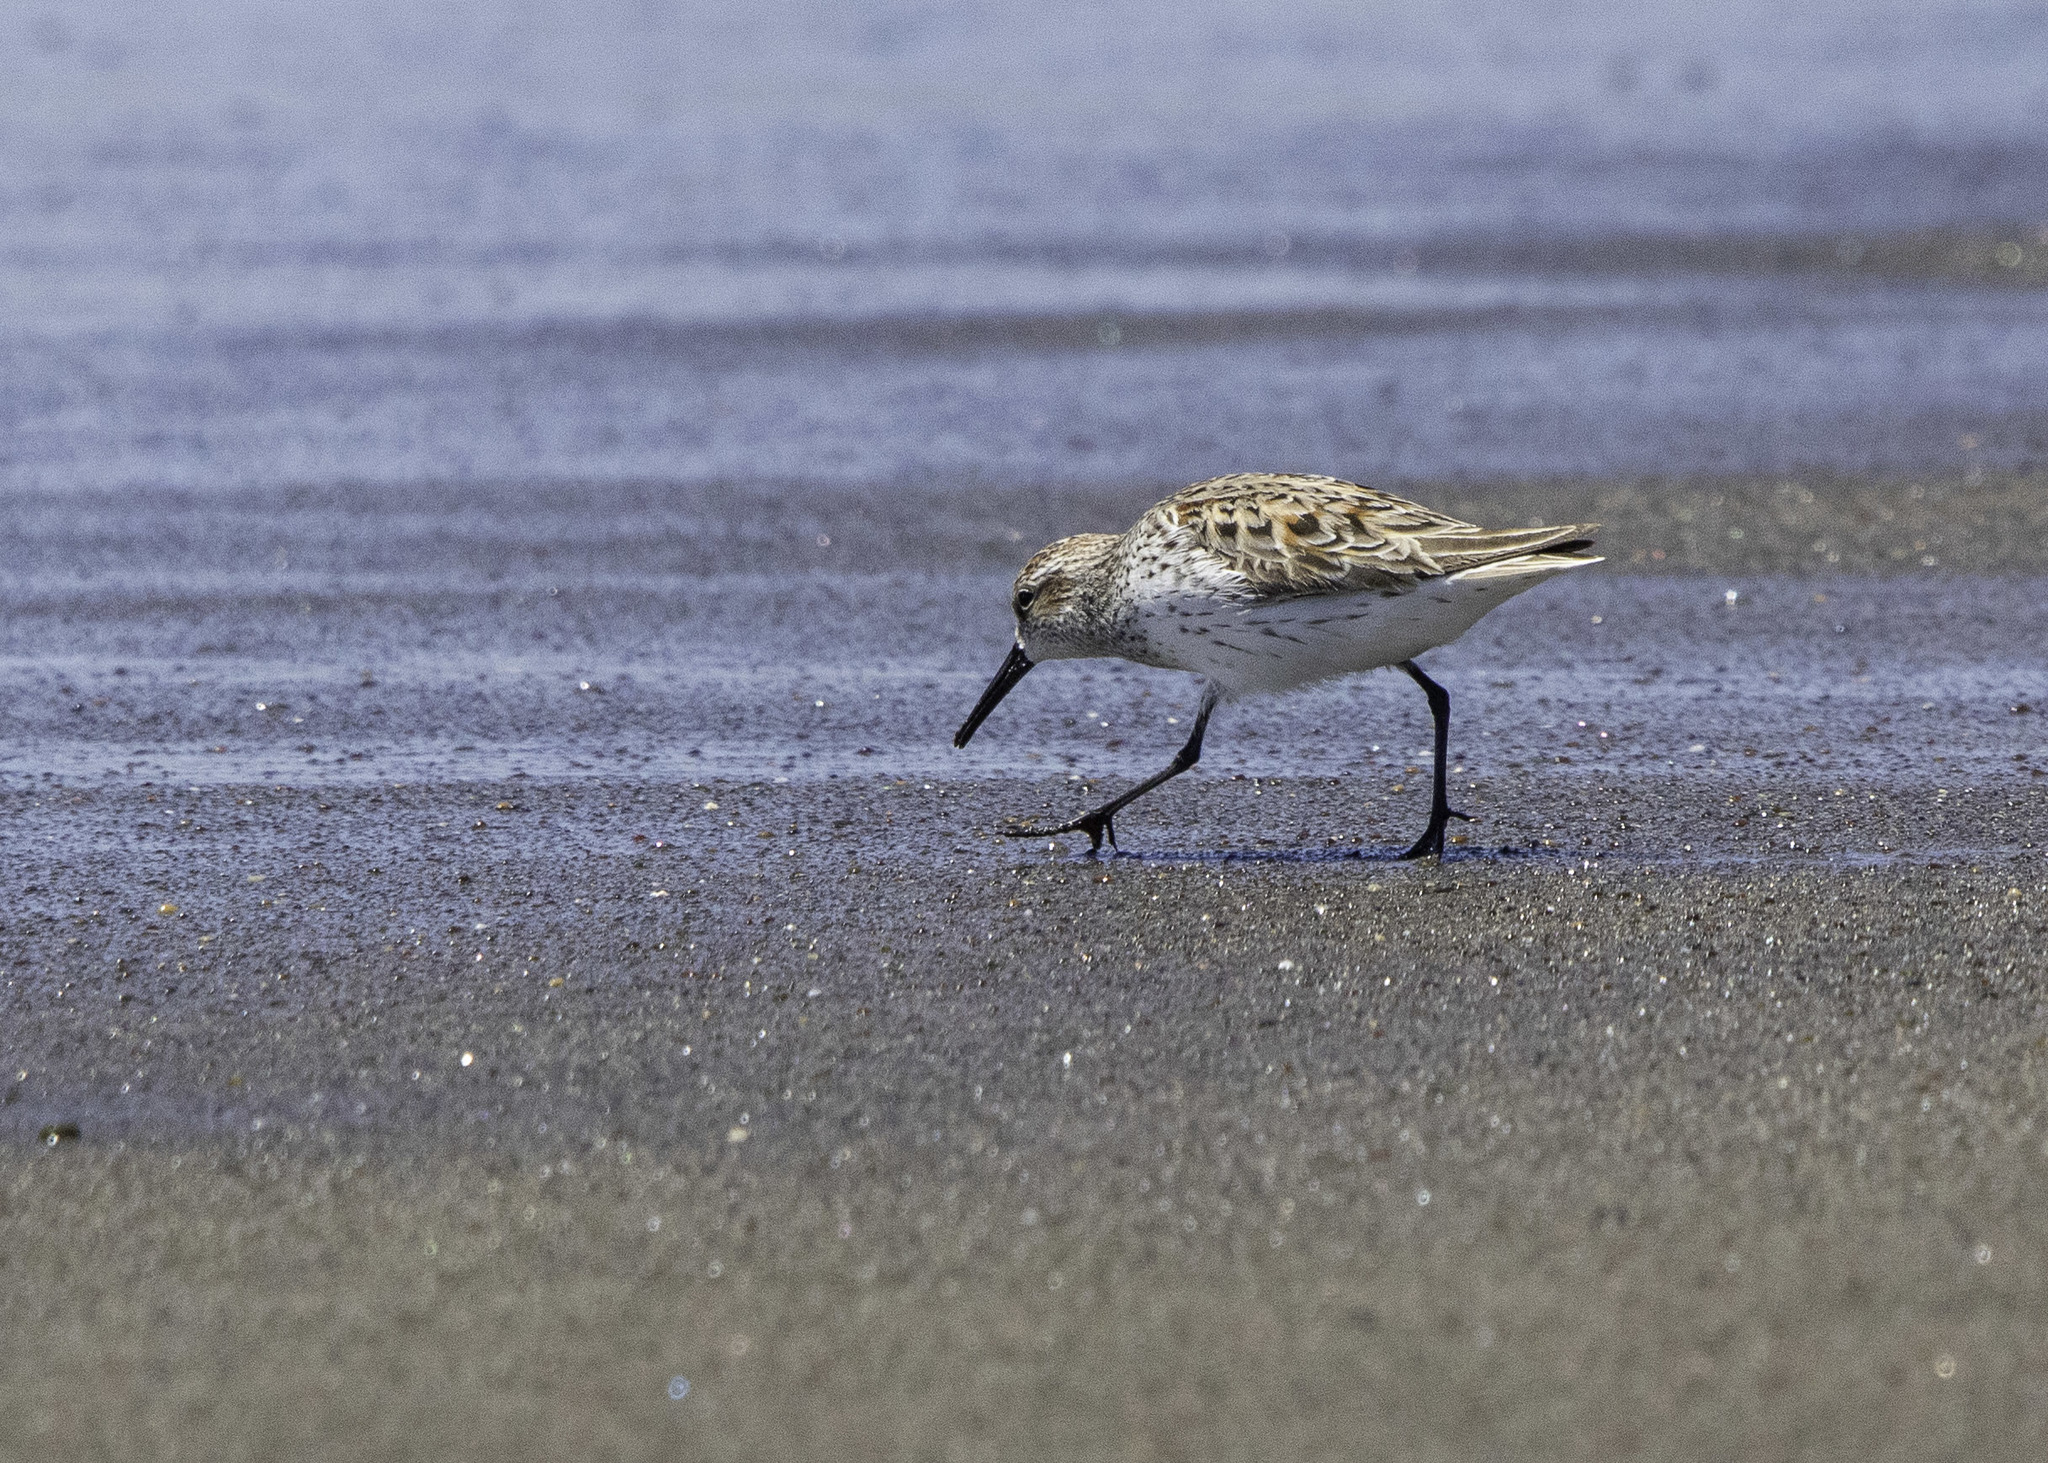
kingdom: Animalia
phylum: Chordata
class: Aves
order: Charadriiformes
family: Scolopacidae
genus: Calidris
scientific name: Calidris mauri
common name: Western sandpiper
